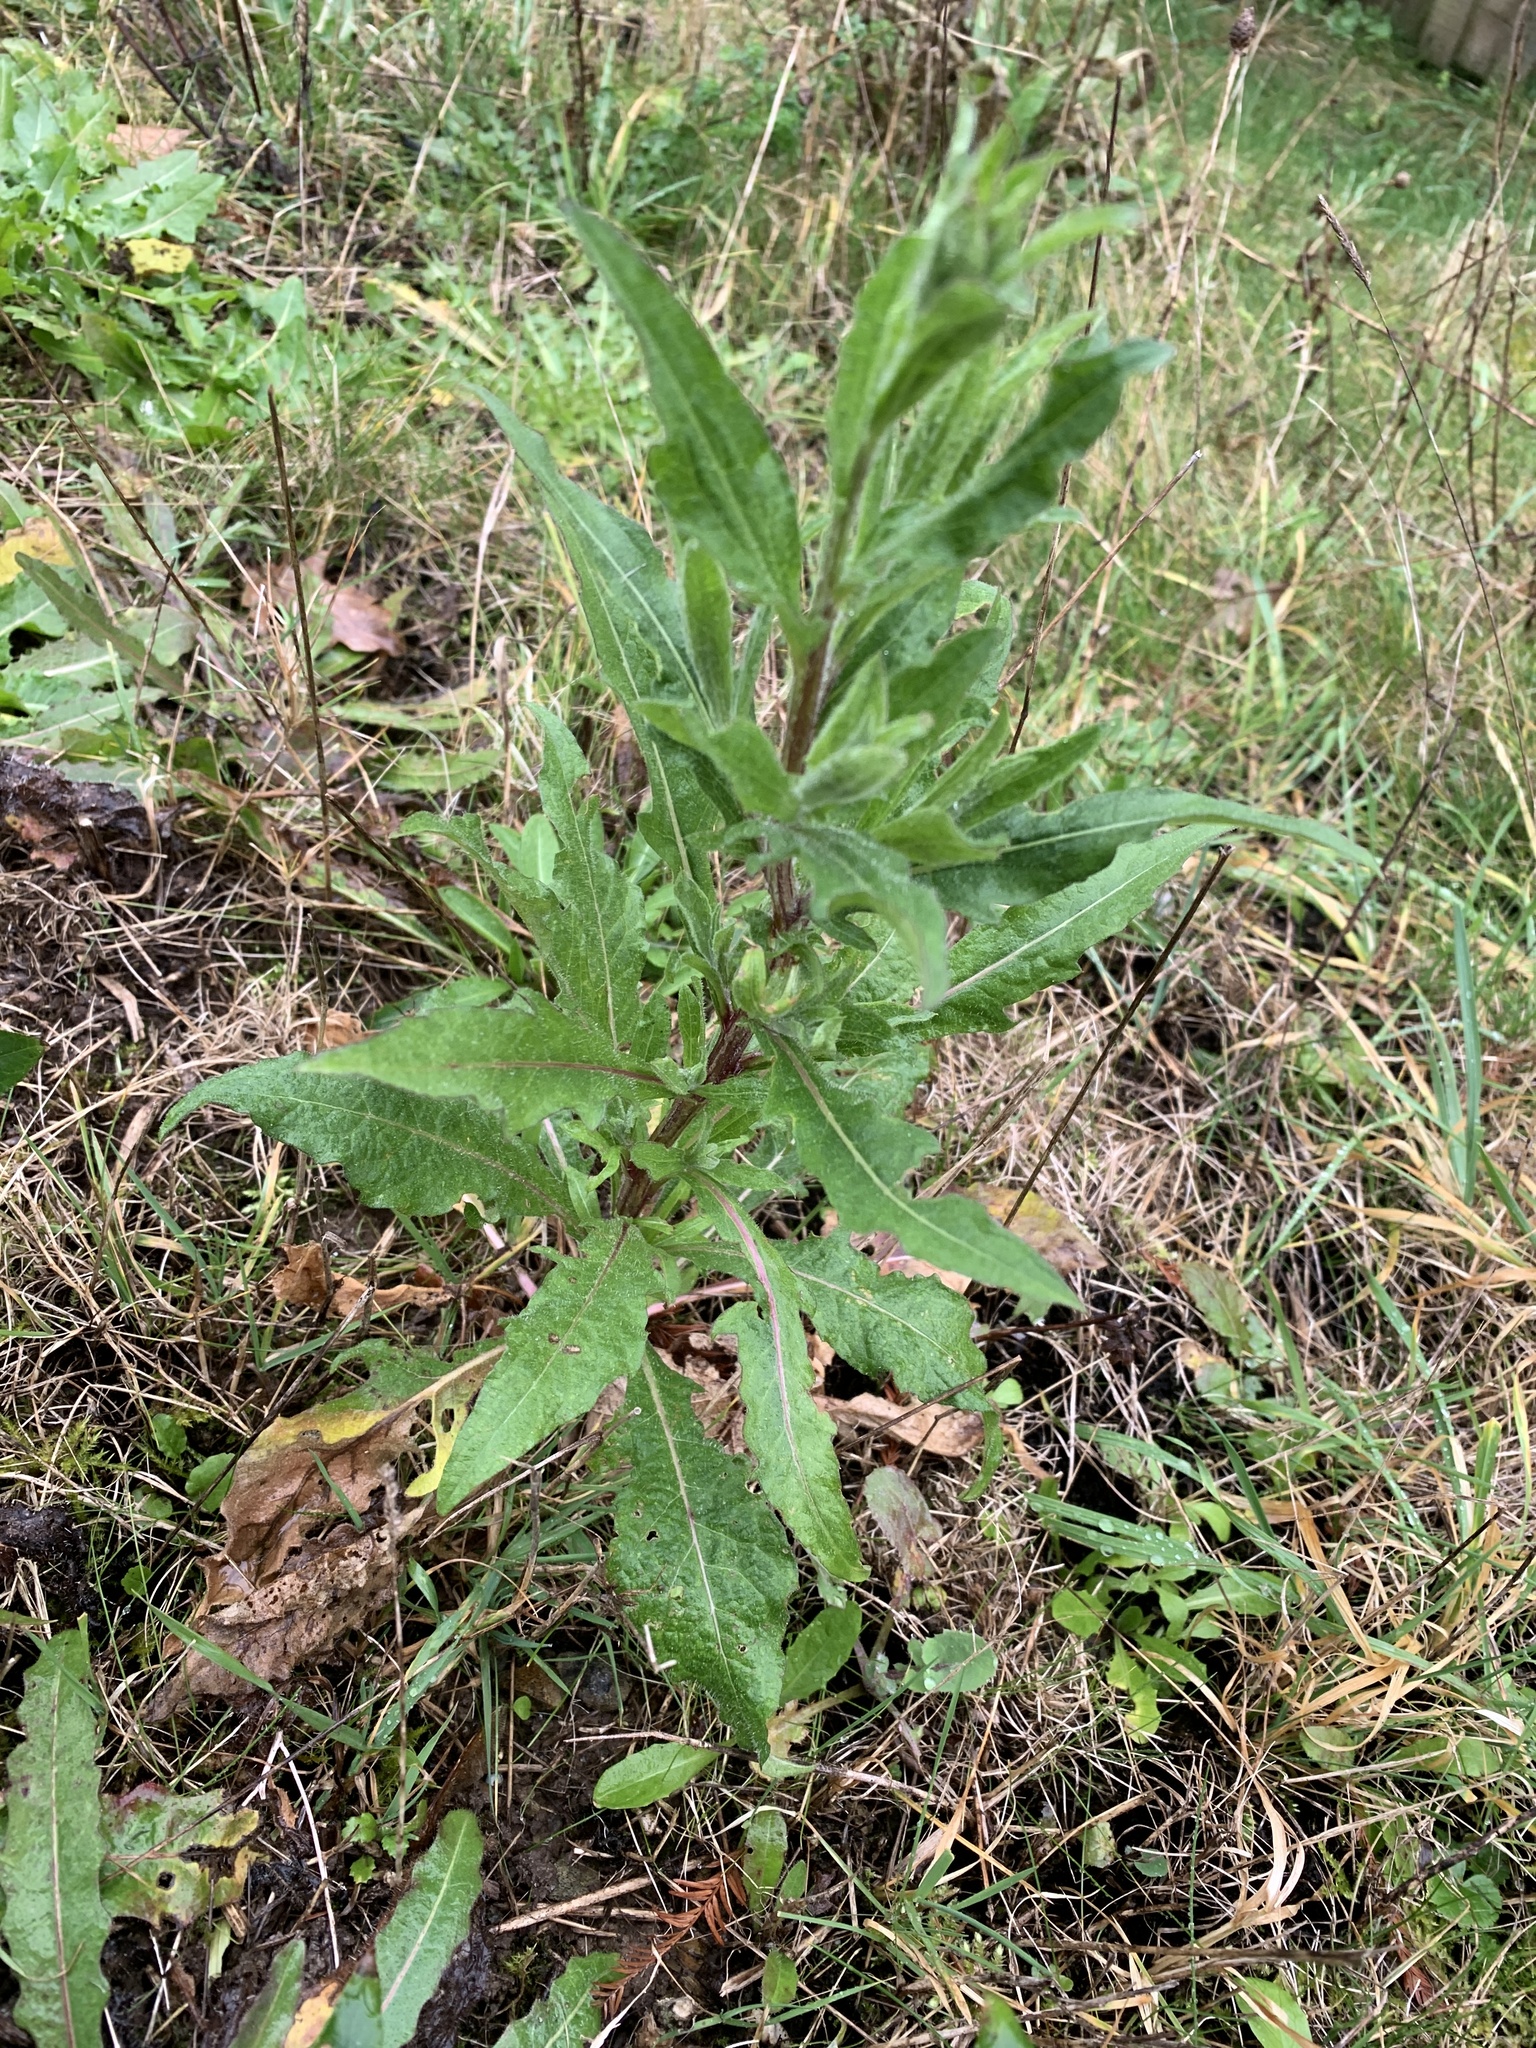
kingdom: Plantae
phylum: Tracheophyta
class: Magnoliopsida
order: Asterales
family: Asteraceae
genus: Eupatorium
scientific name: Eupatorium cannabinum
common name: Hemp-agrimony
